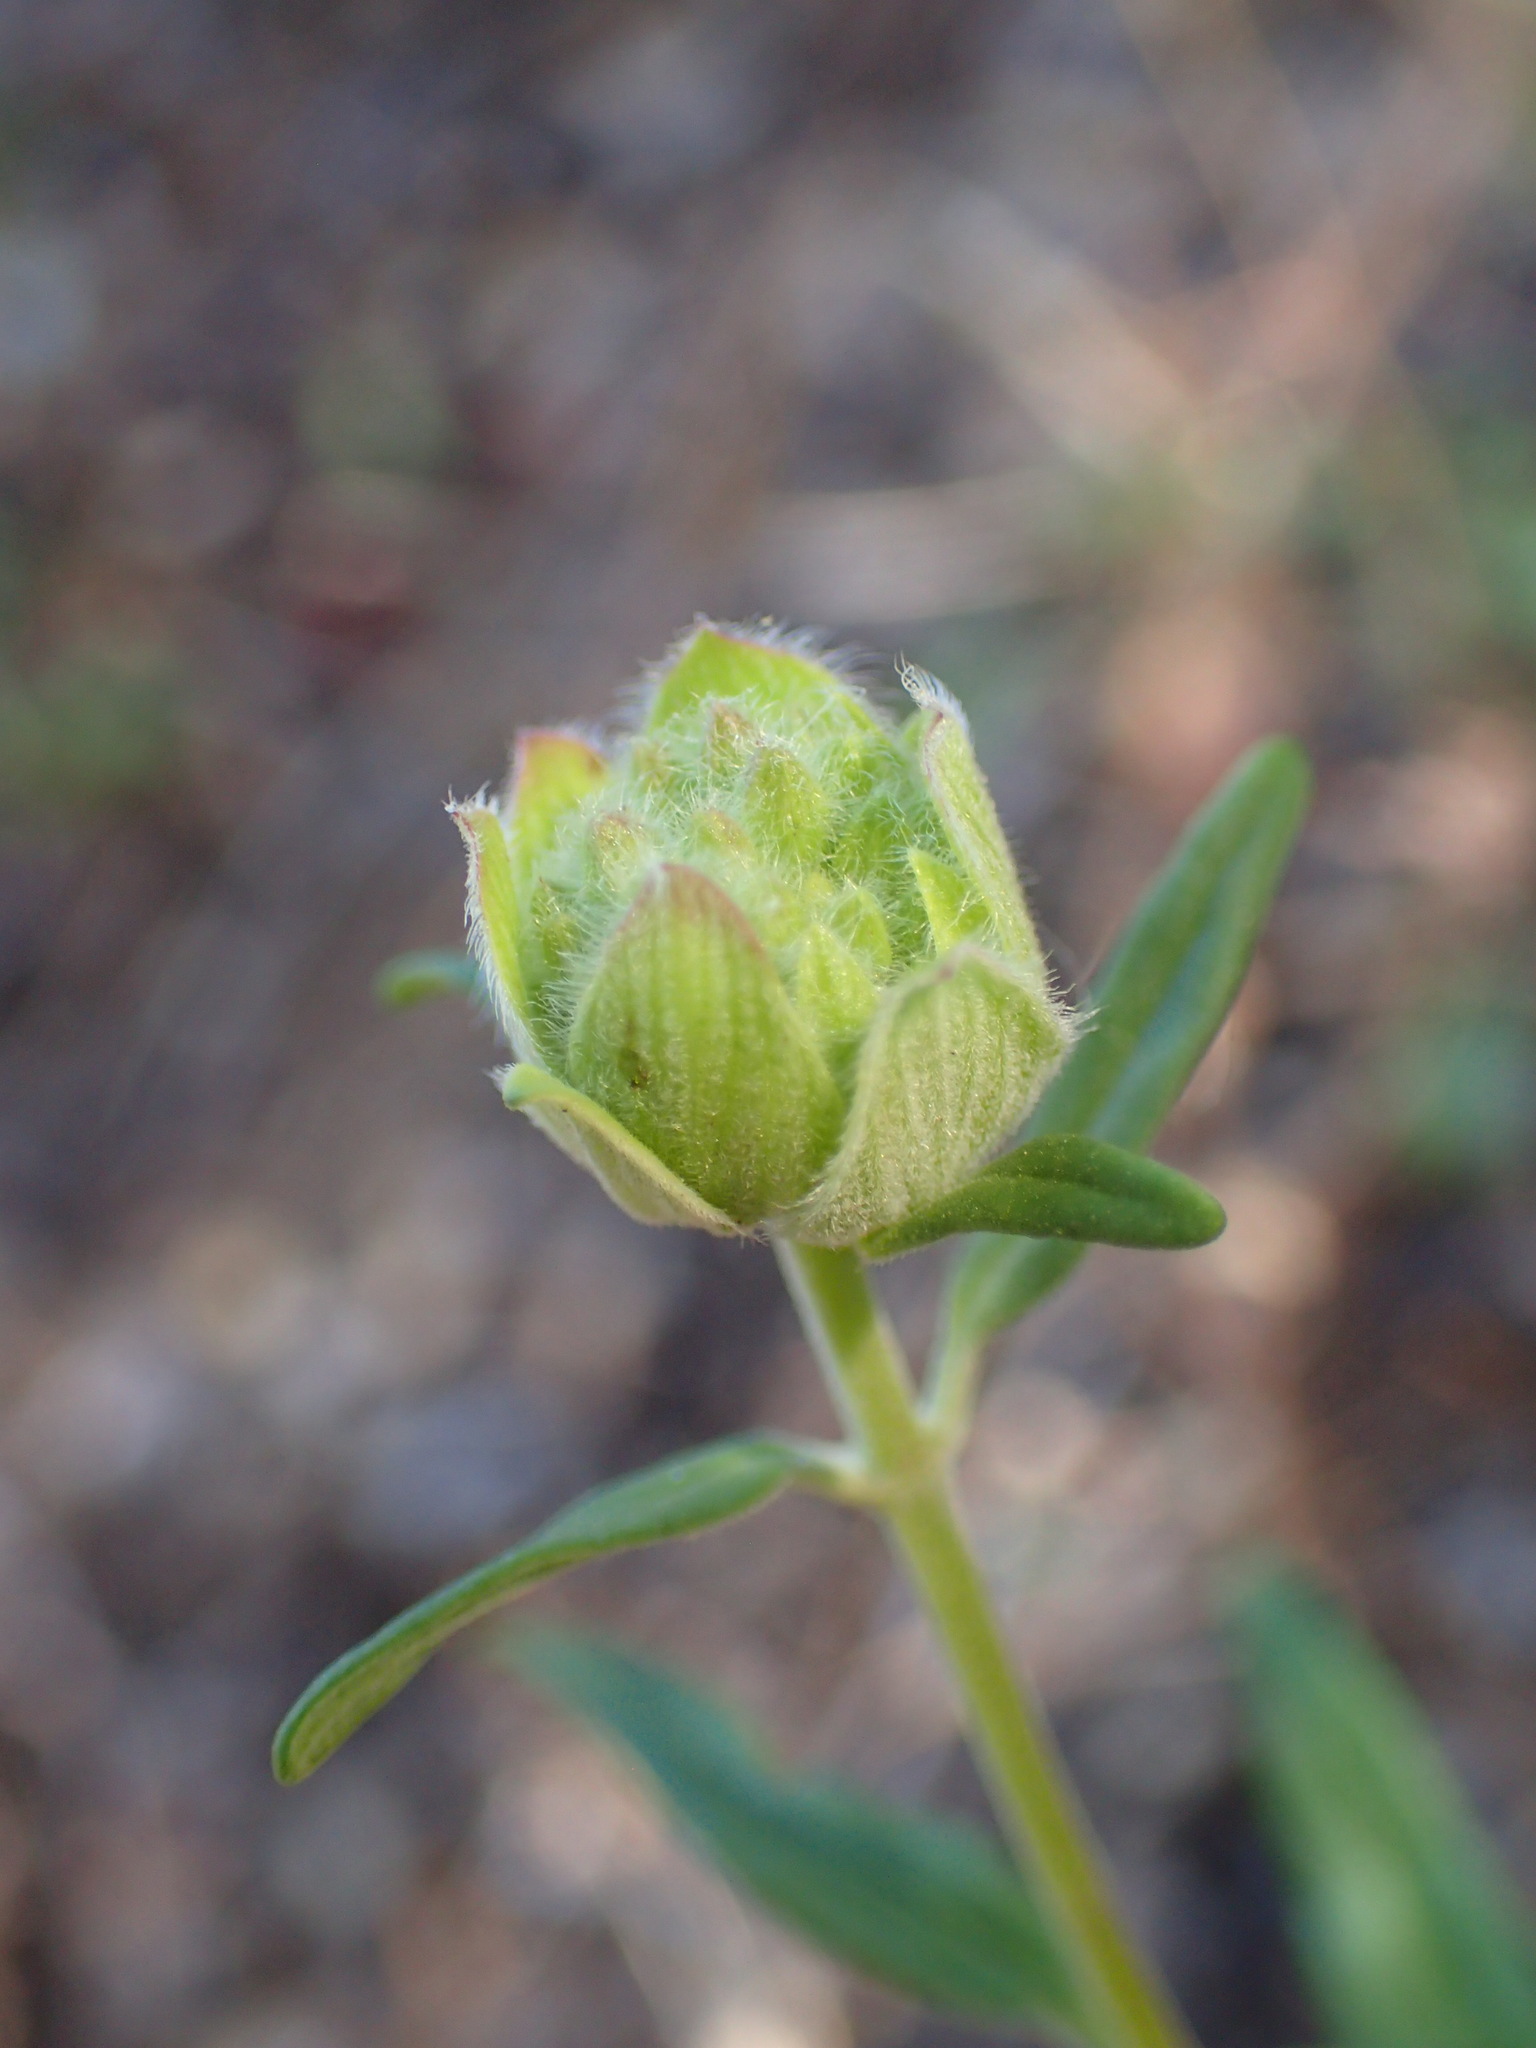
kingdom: Plantae
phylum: Tracheophyta
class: Magnoliopsida
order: Lamiales
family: Lamiaceae
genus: Monardella
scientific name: Monardella hypoleuca
